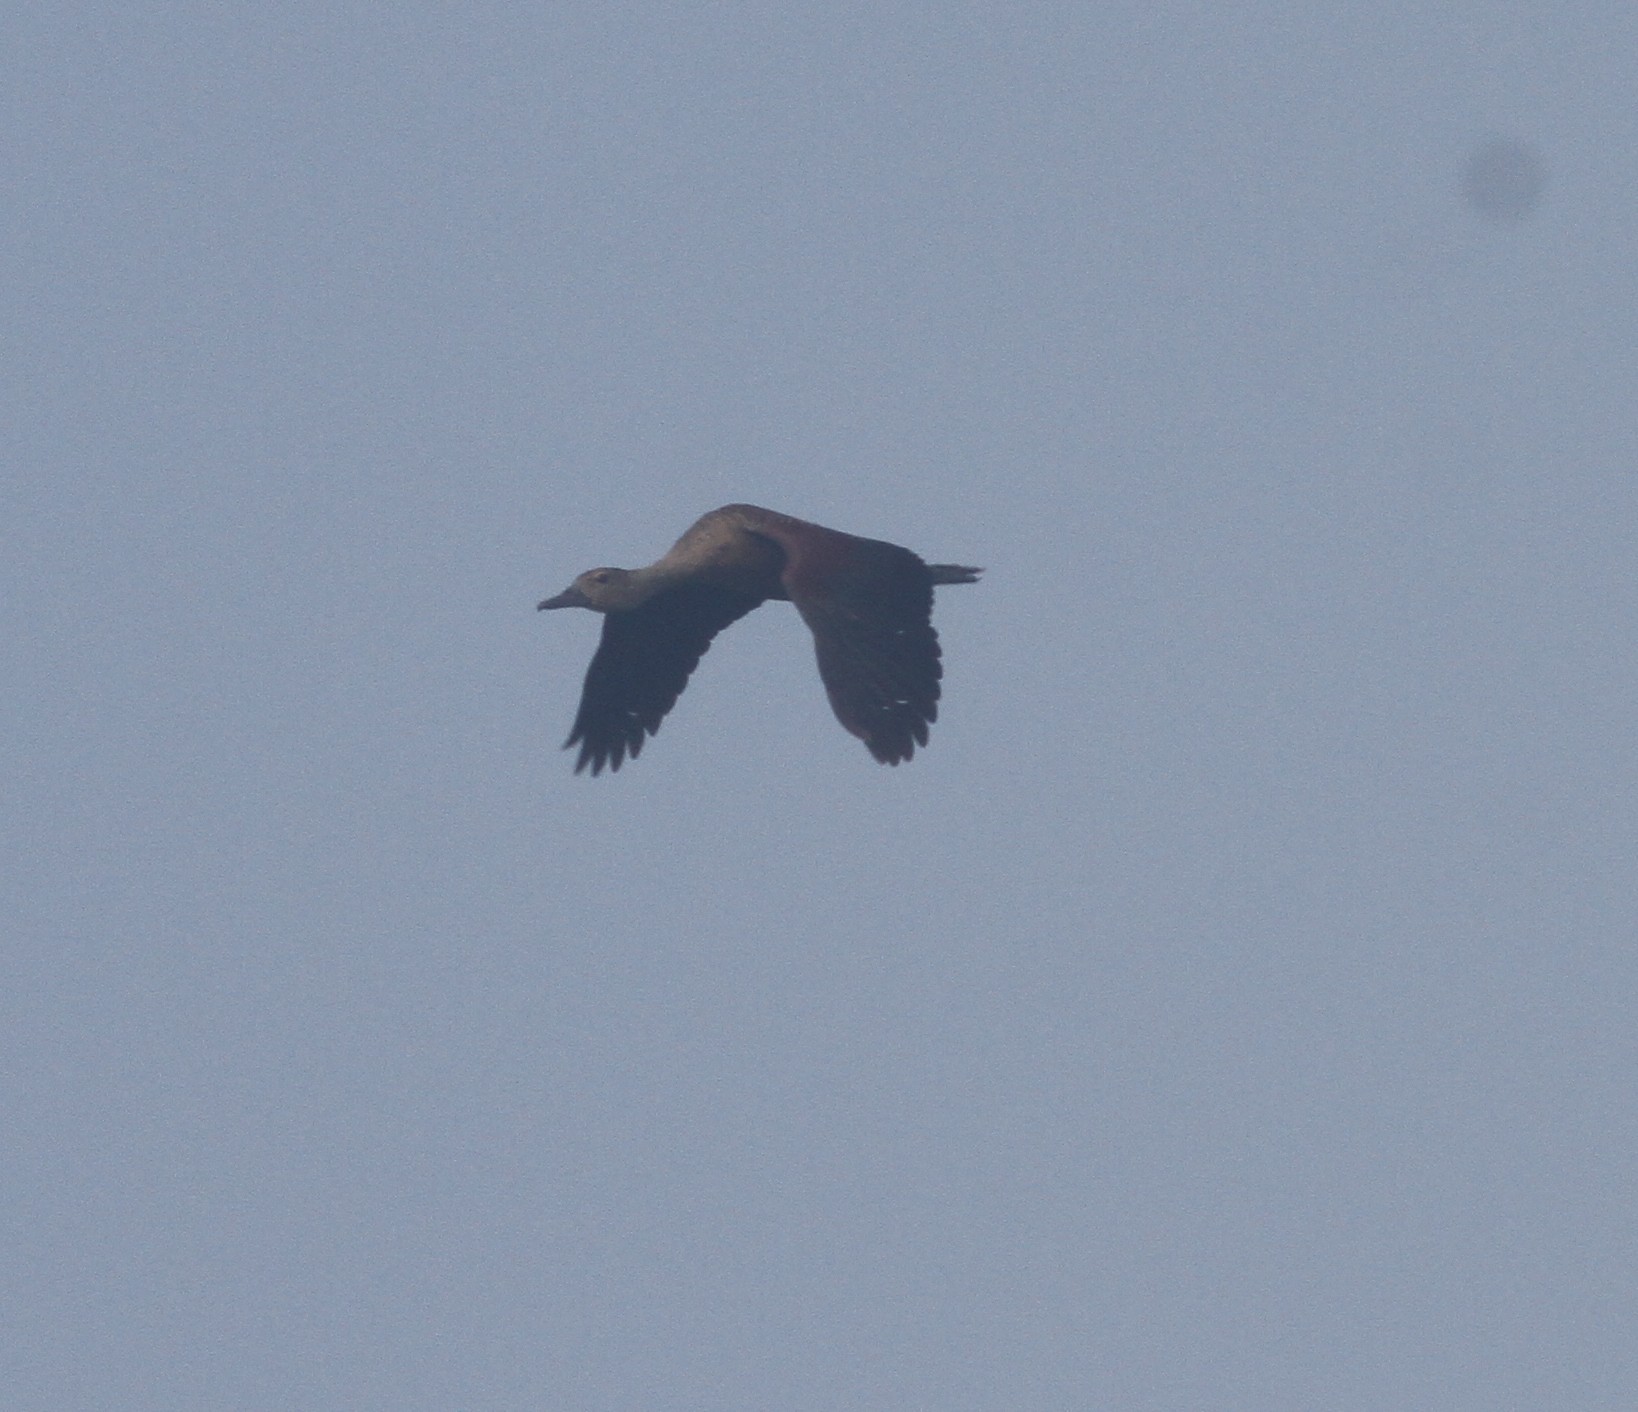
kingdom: Animalia
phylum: Chordata
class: Aves
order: Anseriformes
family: Anatidae
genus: Dendrocygna
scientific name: Dendrocygna javanica
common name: Lesser whistling-duck
